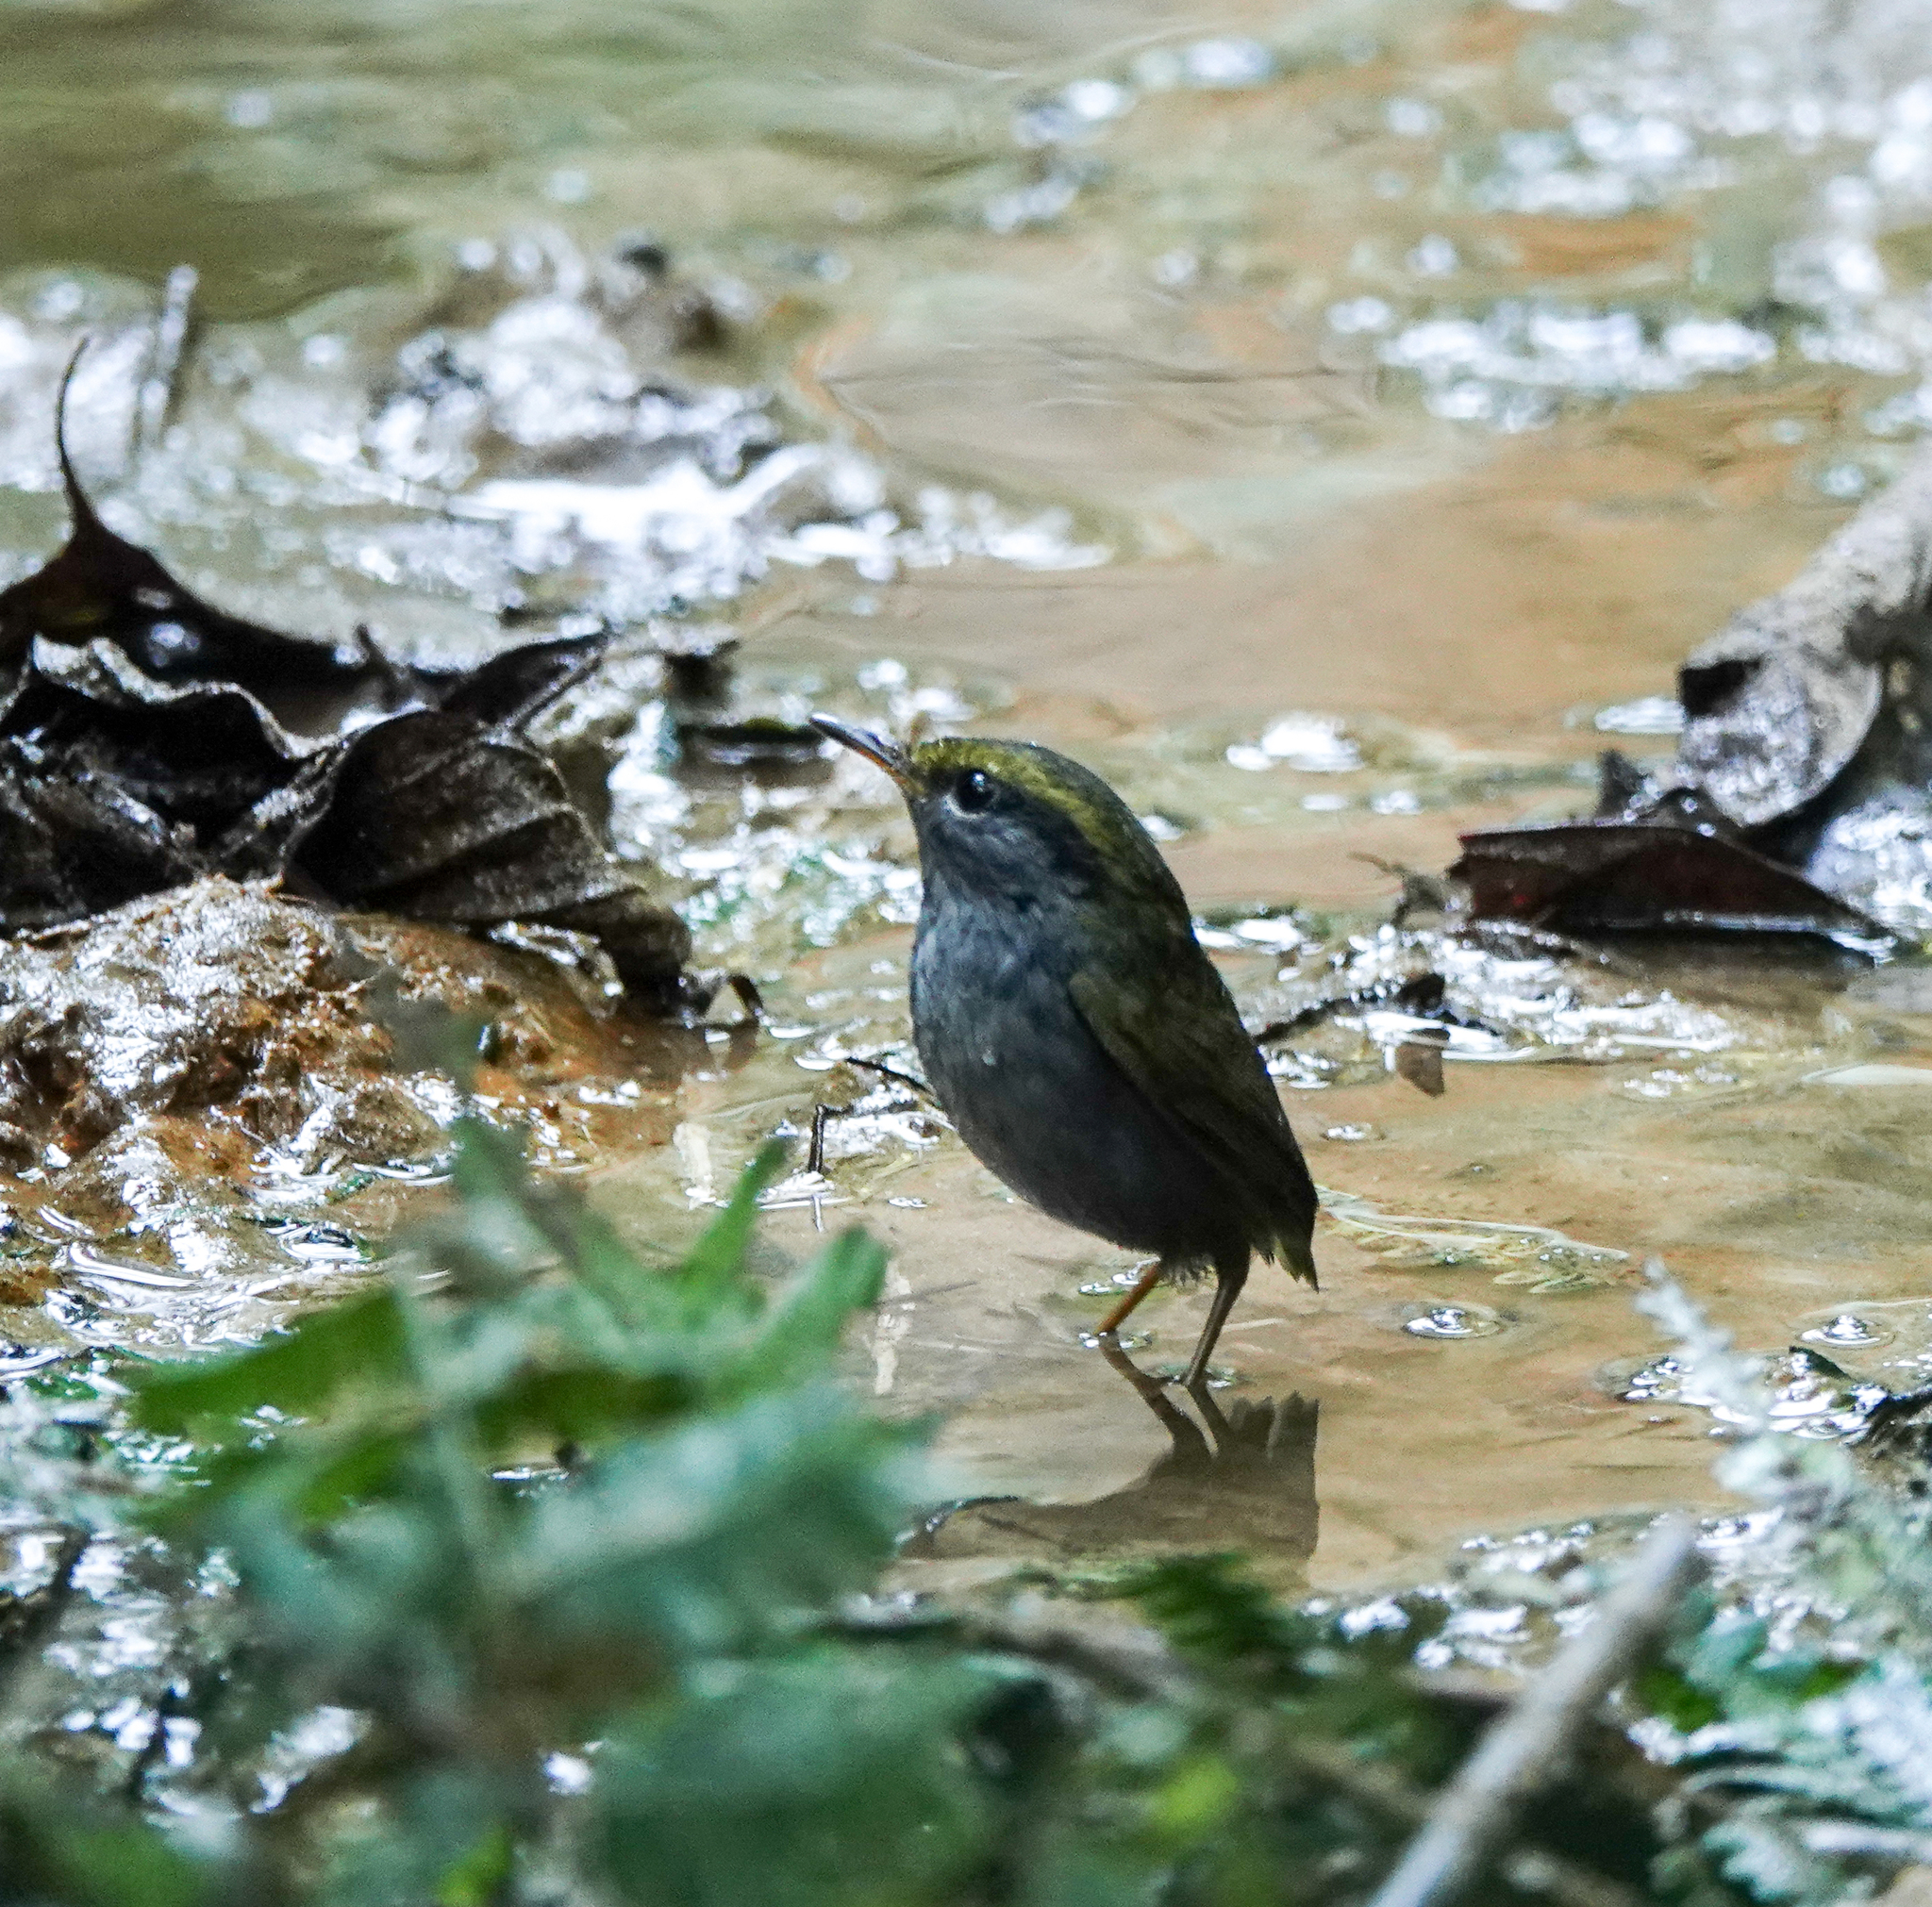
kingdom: Animalia
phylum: Chordata
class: Aves
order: Passeriformes
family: Cettiidae
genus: Tesia
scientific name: Tesia cyaniventer
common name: Grey-bellied tesia
